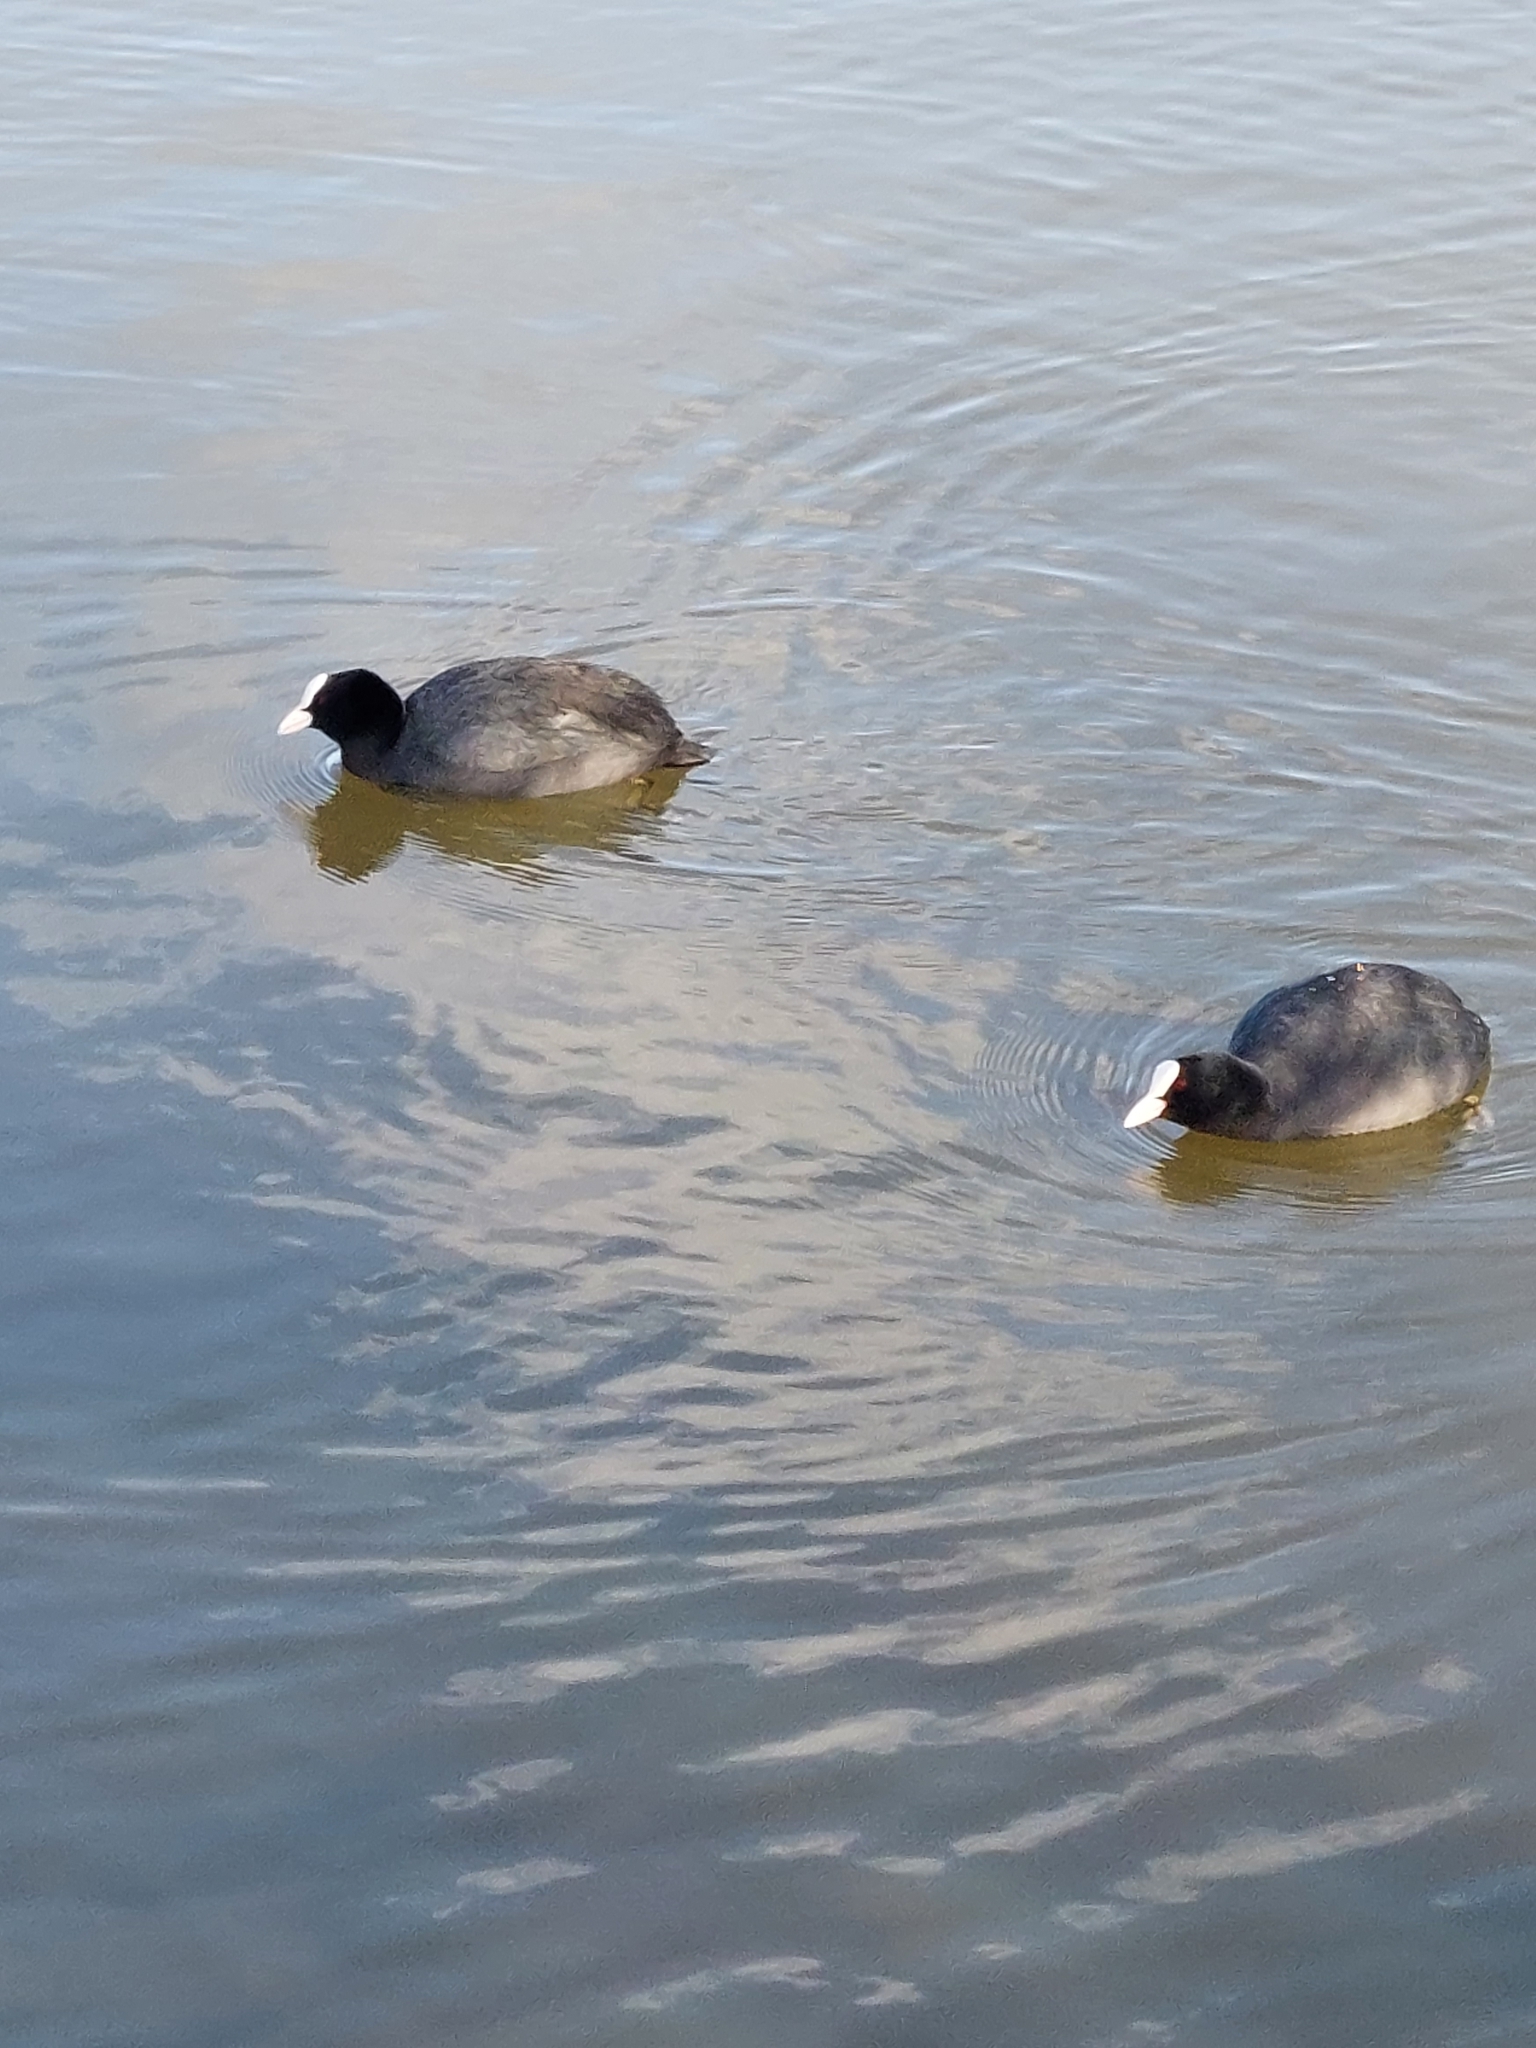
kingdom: Animalia
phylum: Chordata
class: Aves
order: Gruiformes
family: Rallidae
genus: Fulica
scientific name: Fulica atra
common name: Eurasian coot
